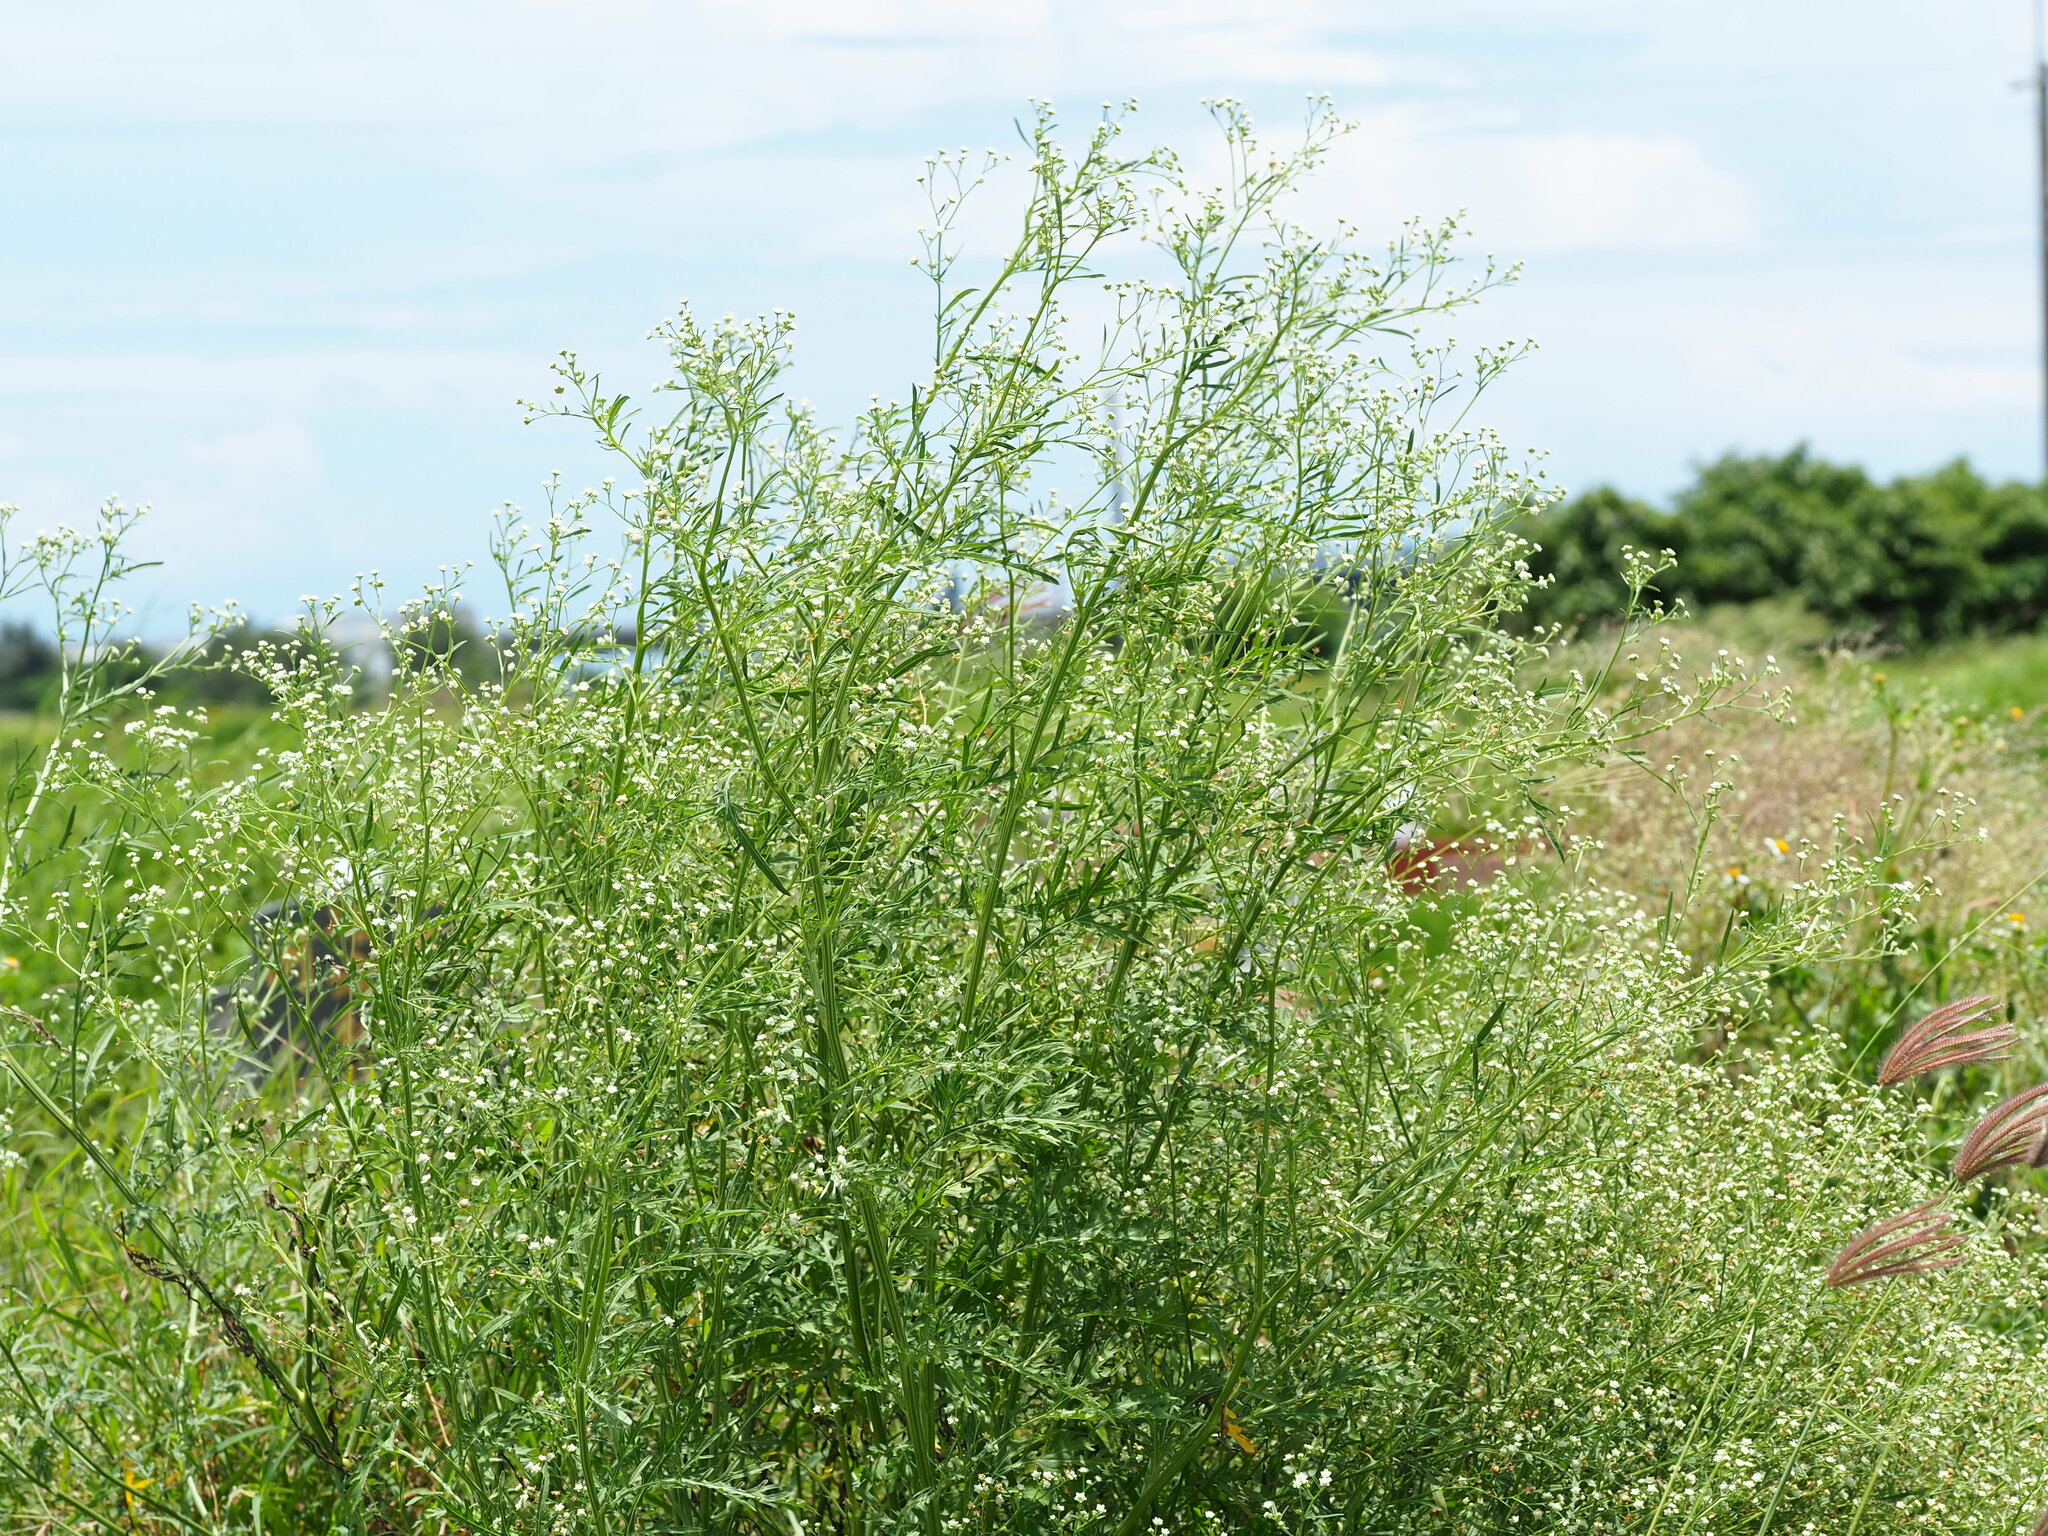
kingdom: Plantae
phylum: Tracheophyta
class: Magnoliopsida
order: Asterales
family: Asteraceae
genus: Parthenium
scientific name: Parthenium hysterophorus
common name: Santa maria feverfew
